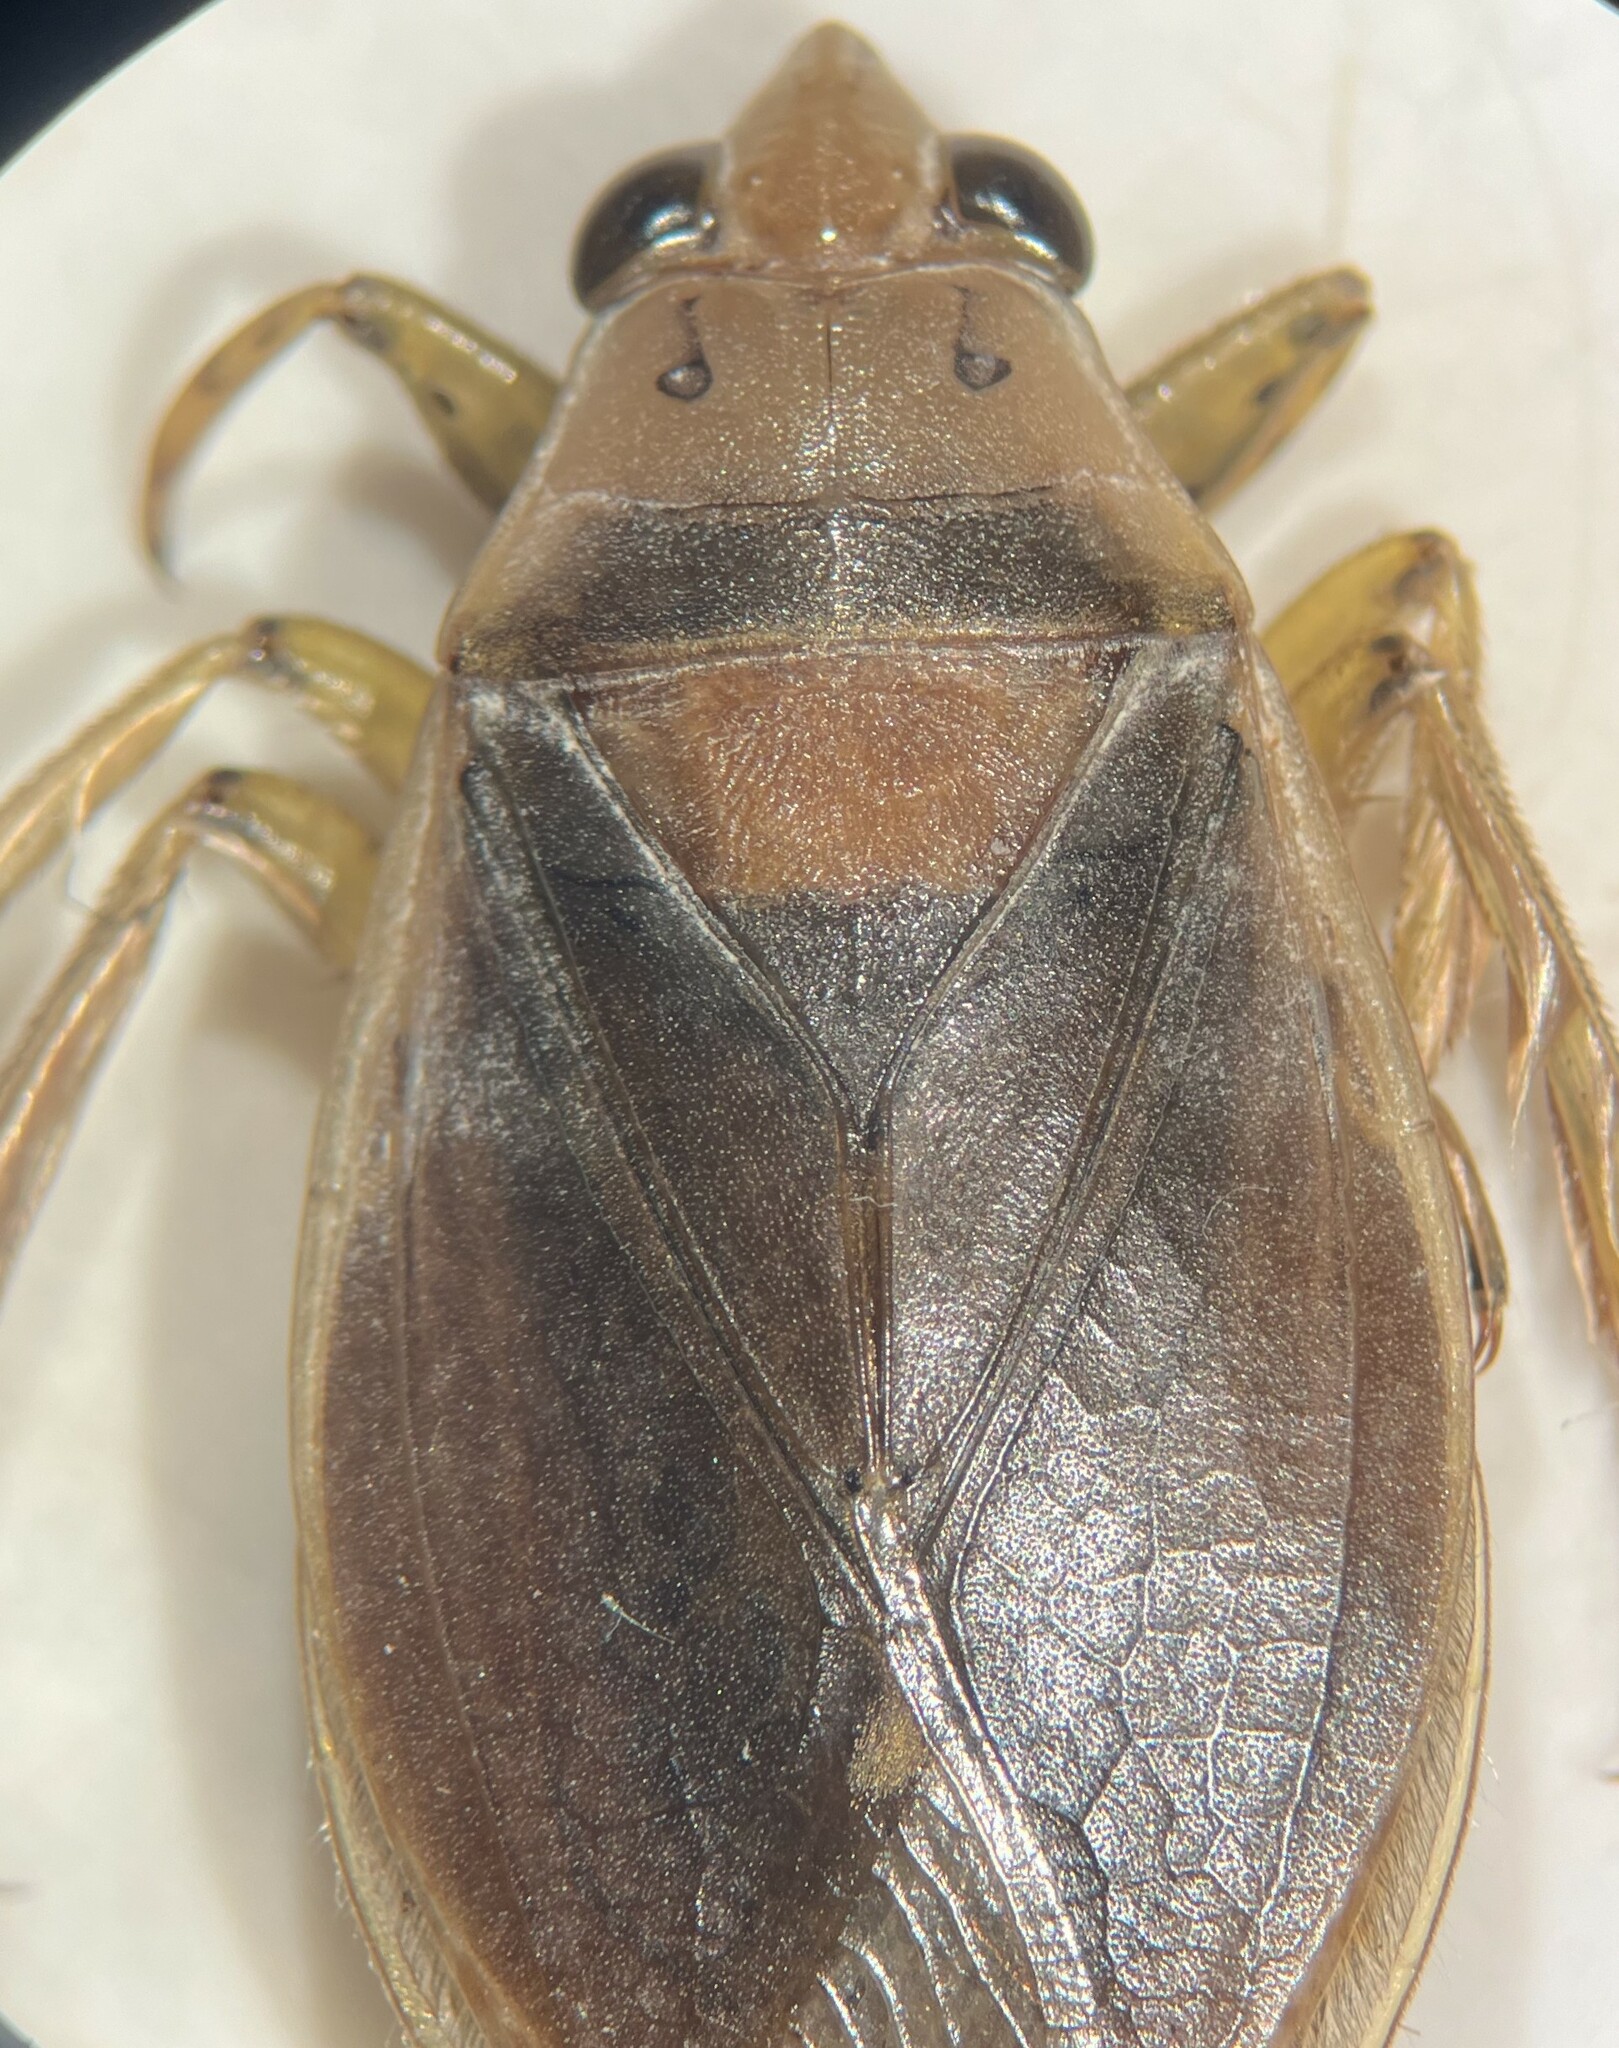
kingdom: Animalia
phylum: Arthropoda
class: Insecta
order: Hemiptera
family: Belostomatidae
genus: Belostoma
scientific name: Belostoma flumineum
